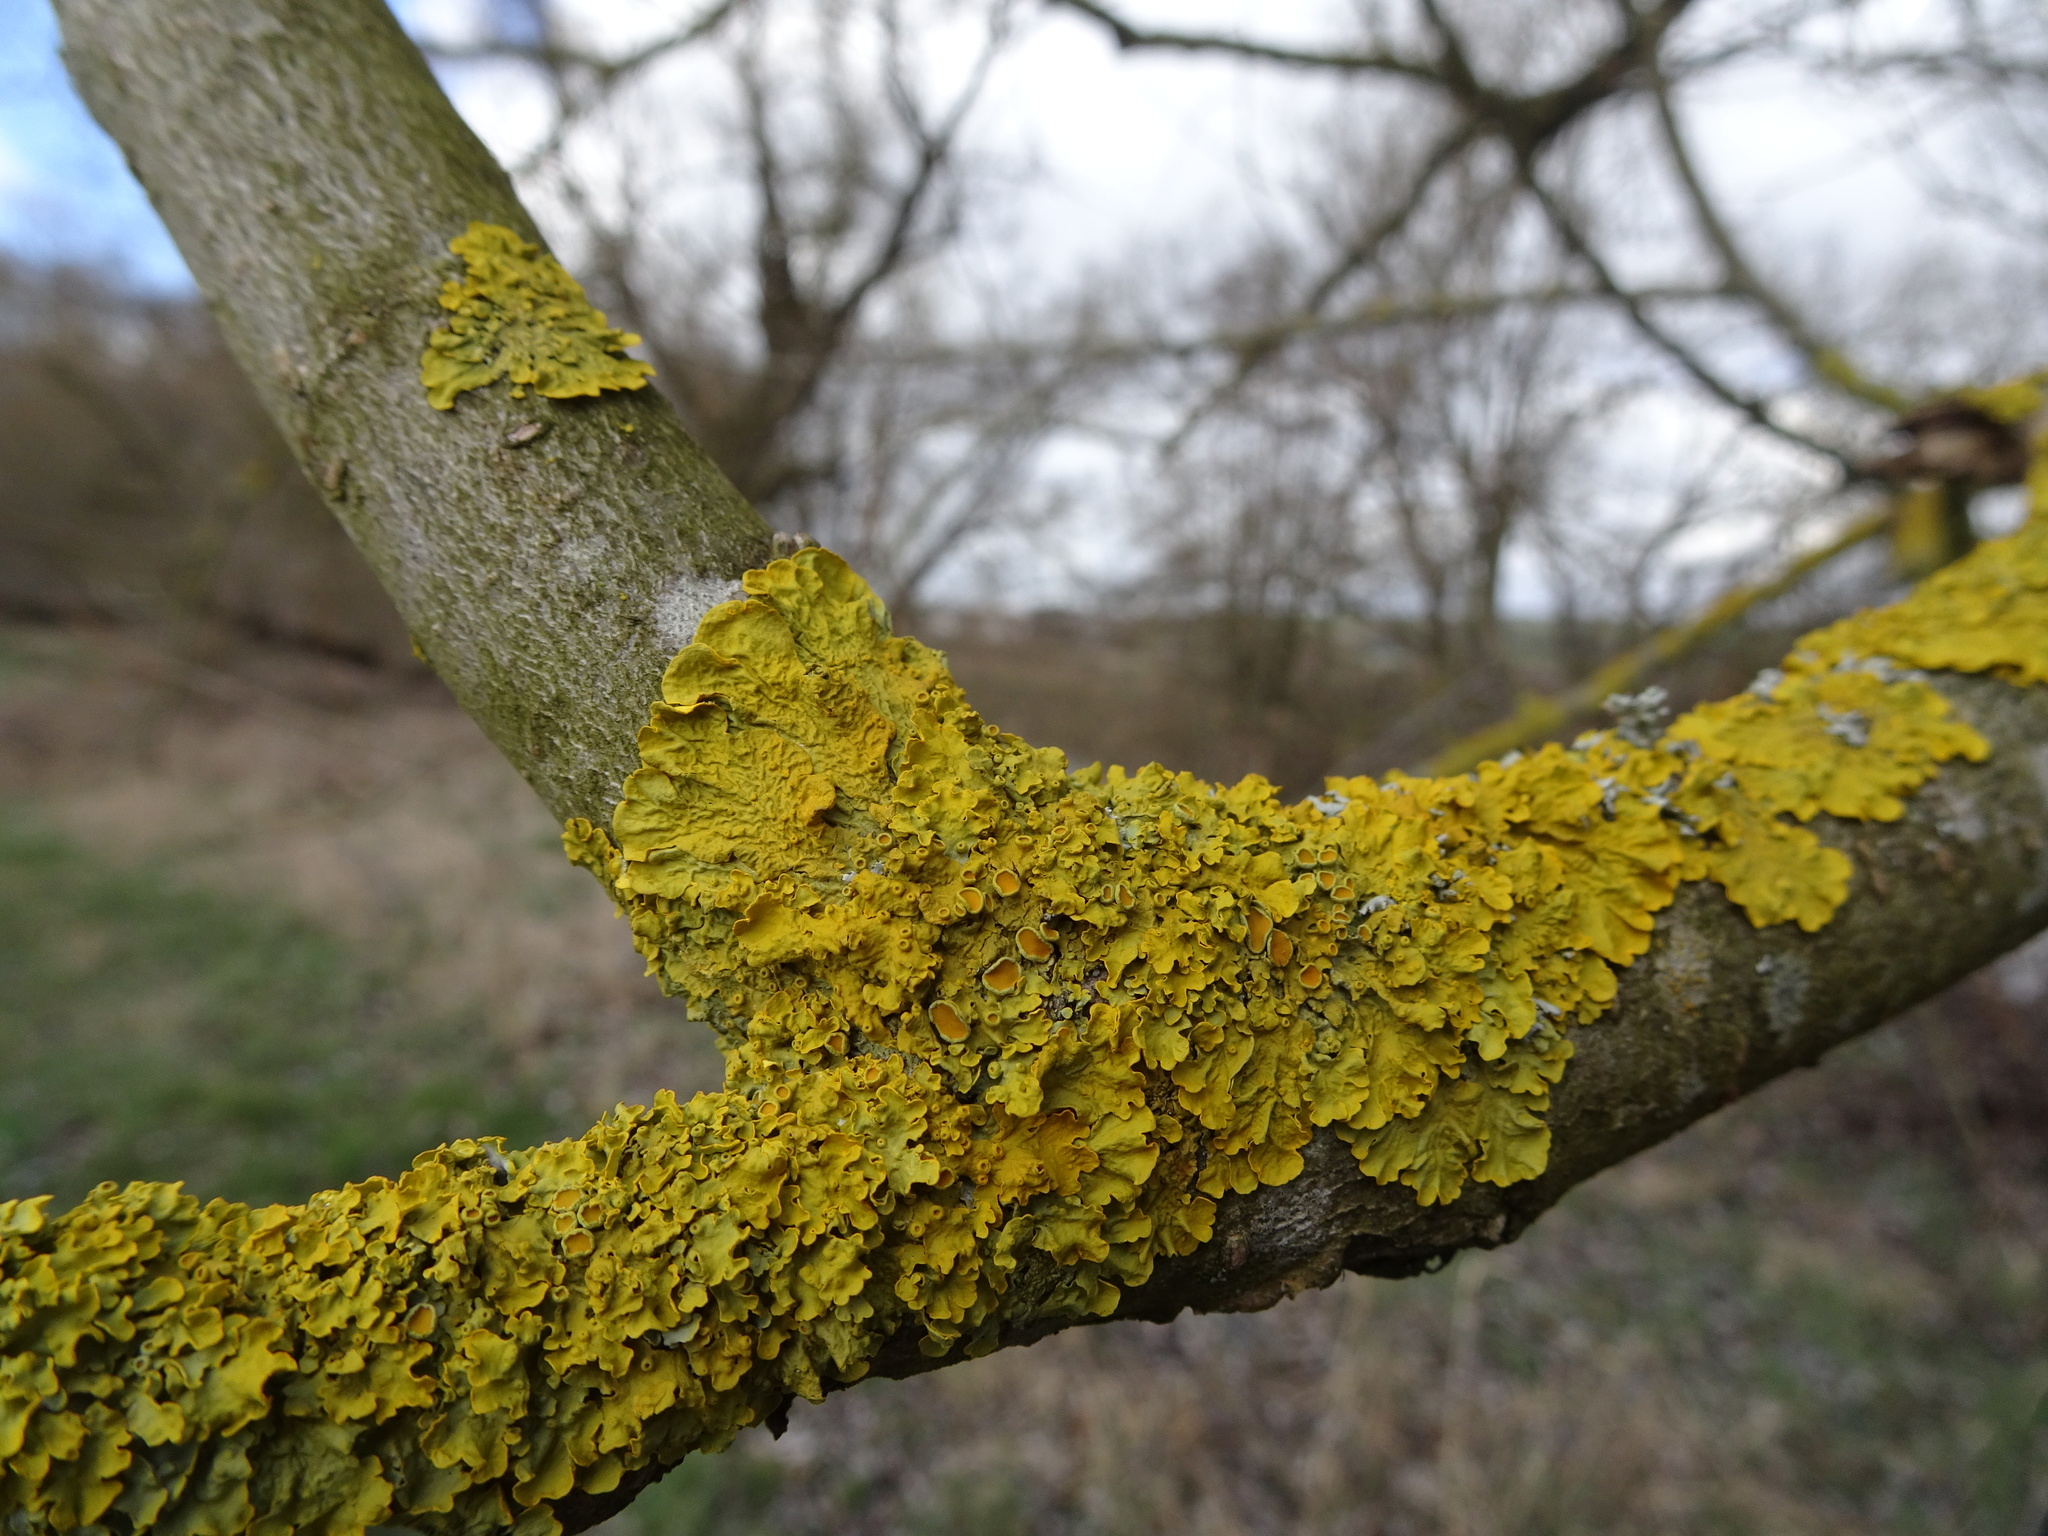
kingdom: Fungi
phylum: Ascomycota
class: Lecanoromycetes
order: Teloschistales
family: Teloschistaceae
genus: Xanthoria
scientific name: Xanthoria parietina
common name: Common orange lichen
